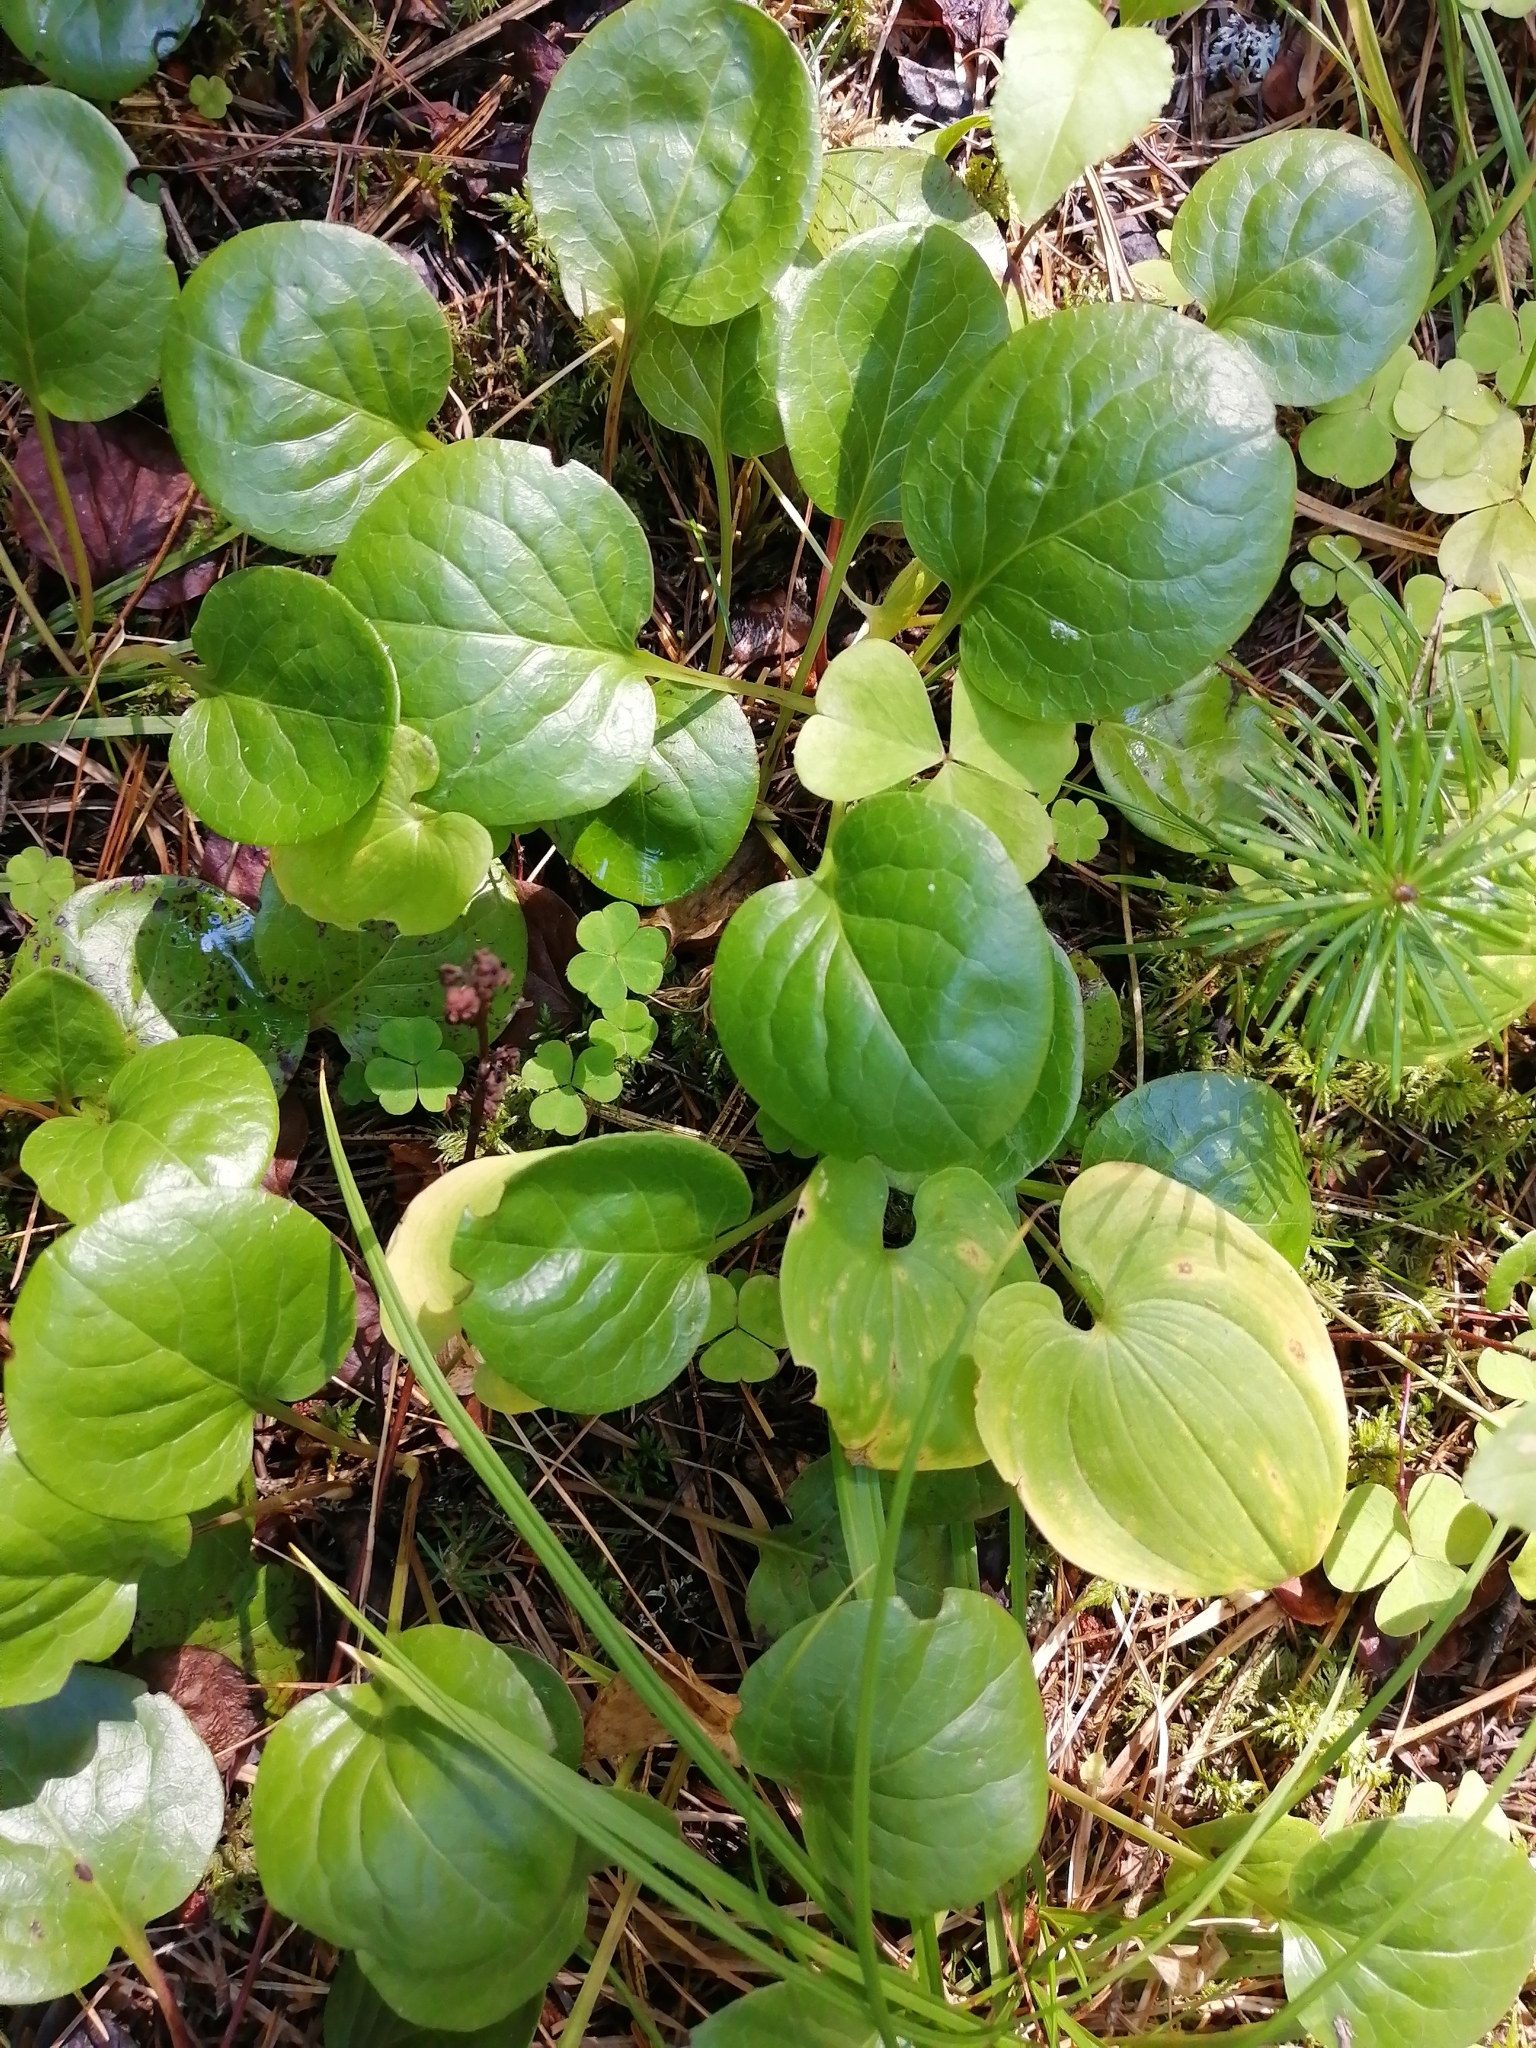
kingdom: Plantae
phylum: Tracheophyta
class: Magnoliopsida
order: Ericales
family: Ericaceae
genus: Pyrola
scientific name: Pyrola
